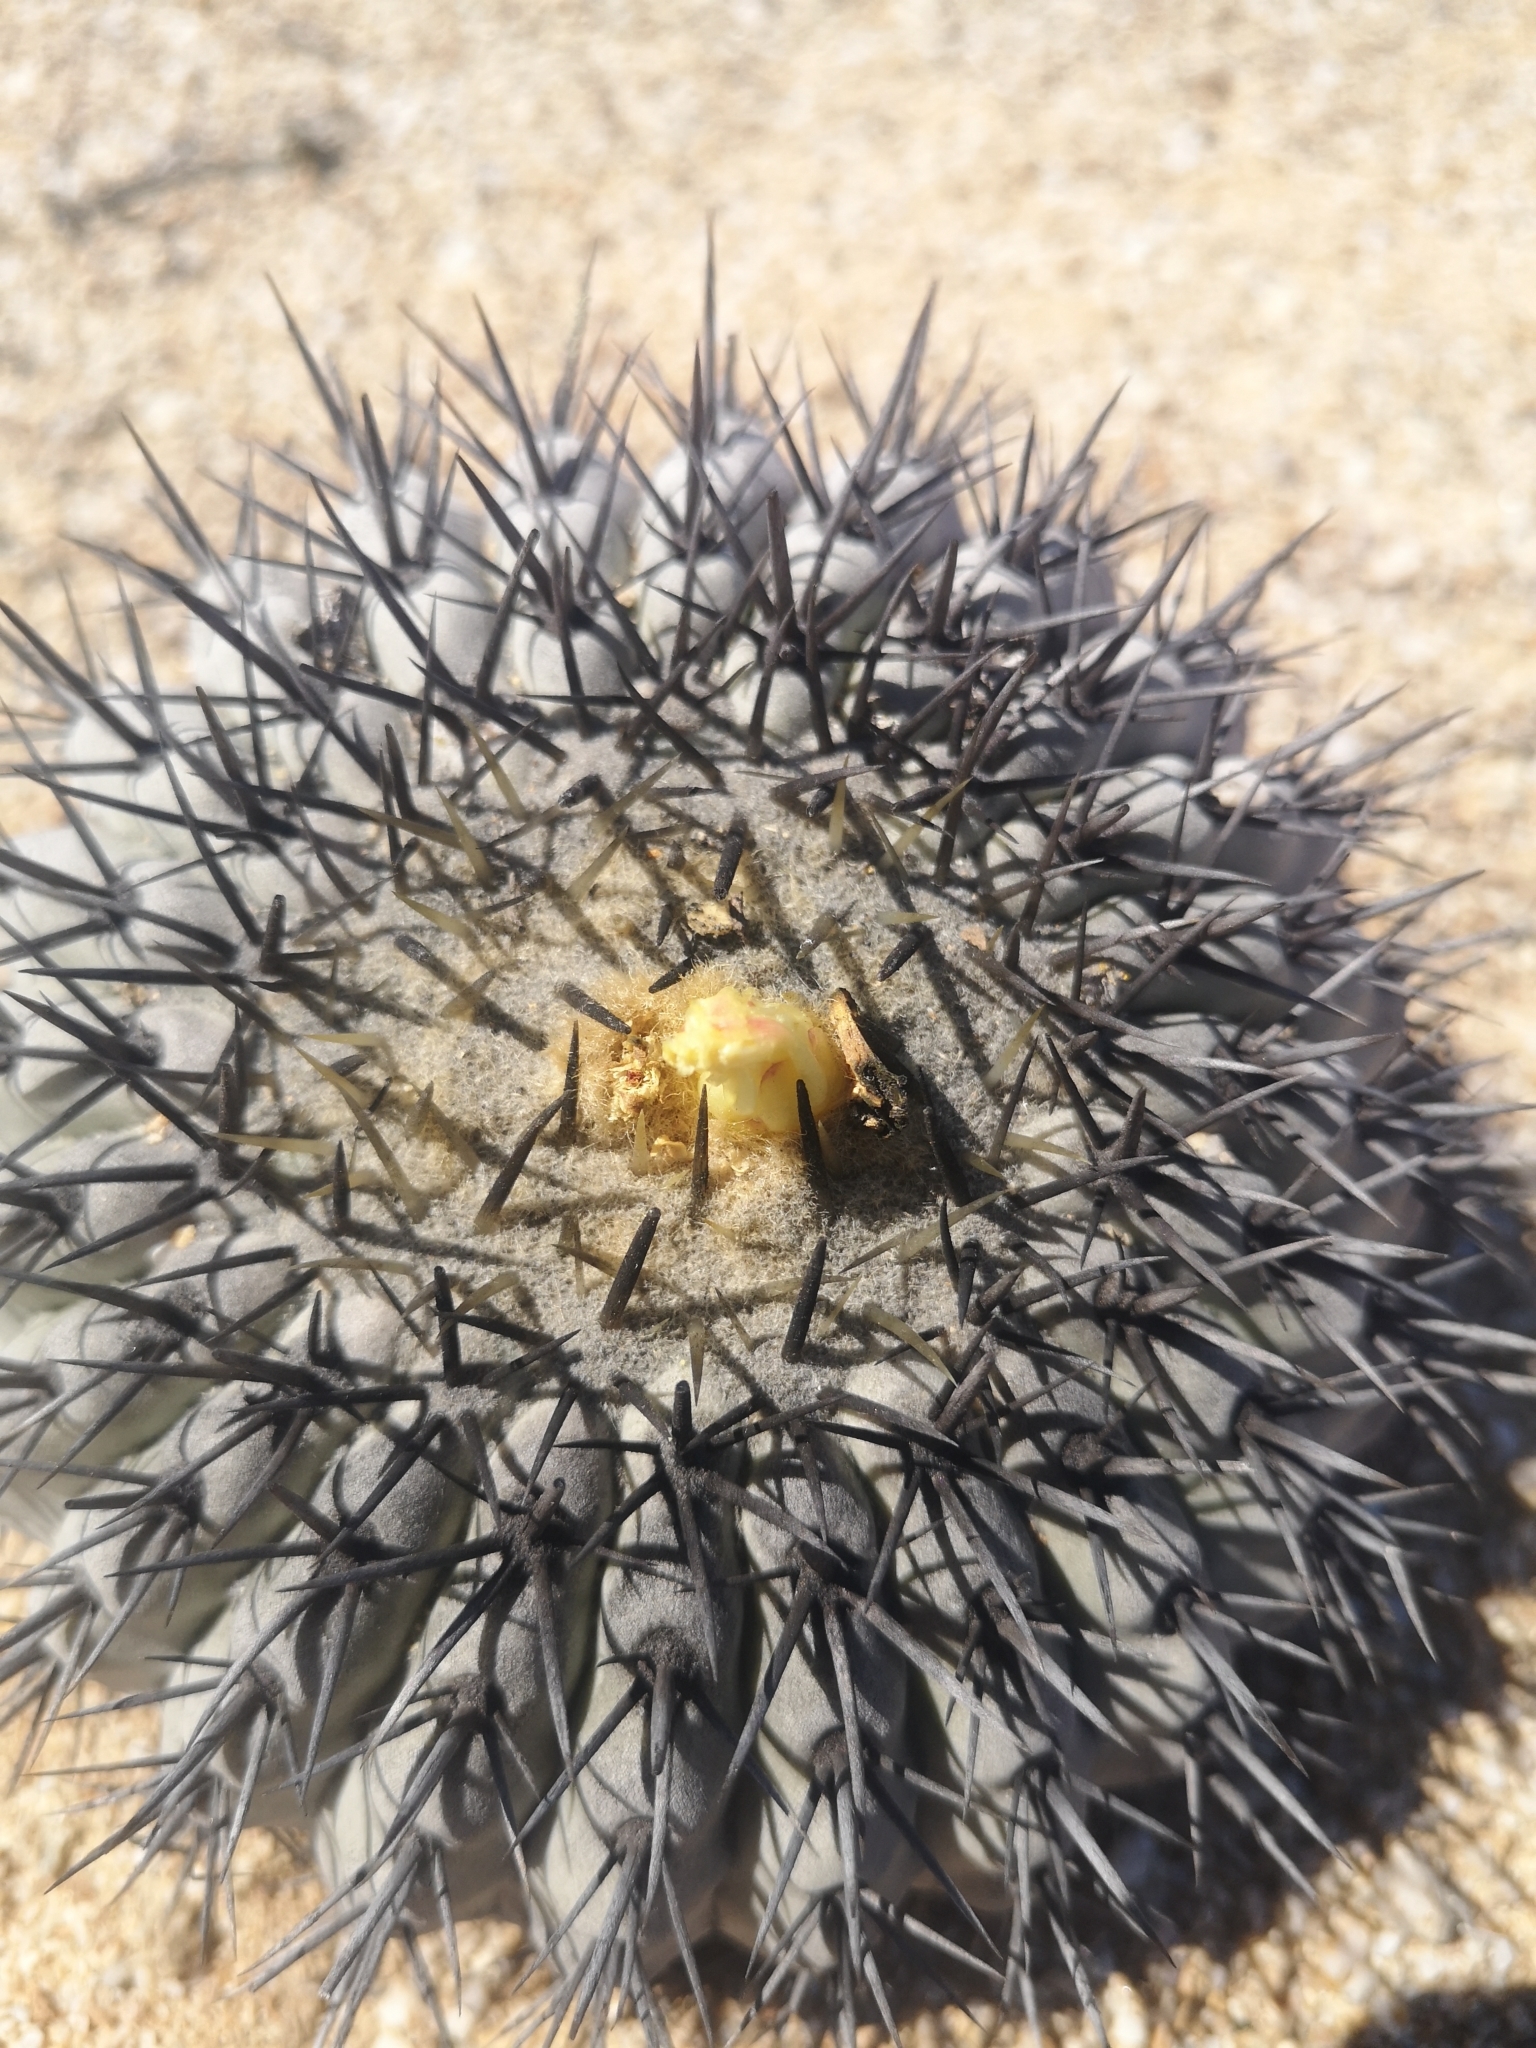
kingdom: Plantae
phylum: Tracheophyta
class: Magnoliopsida
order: Caryophyllales
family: Cactaceae
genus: Copiapoa
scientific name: Copiapoa cinerea
